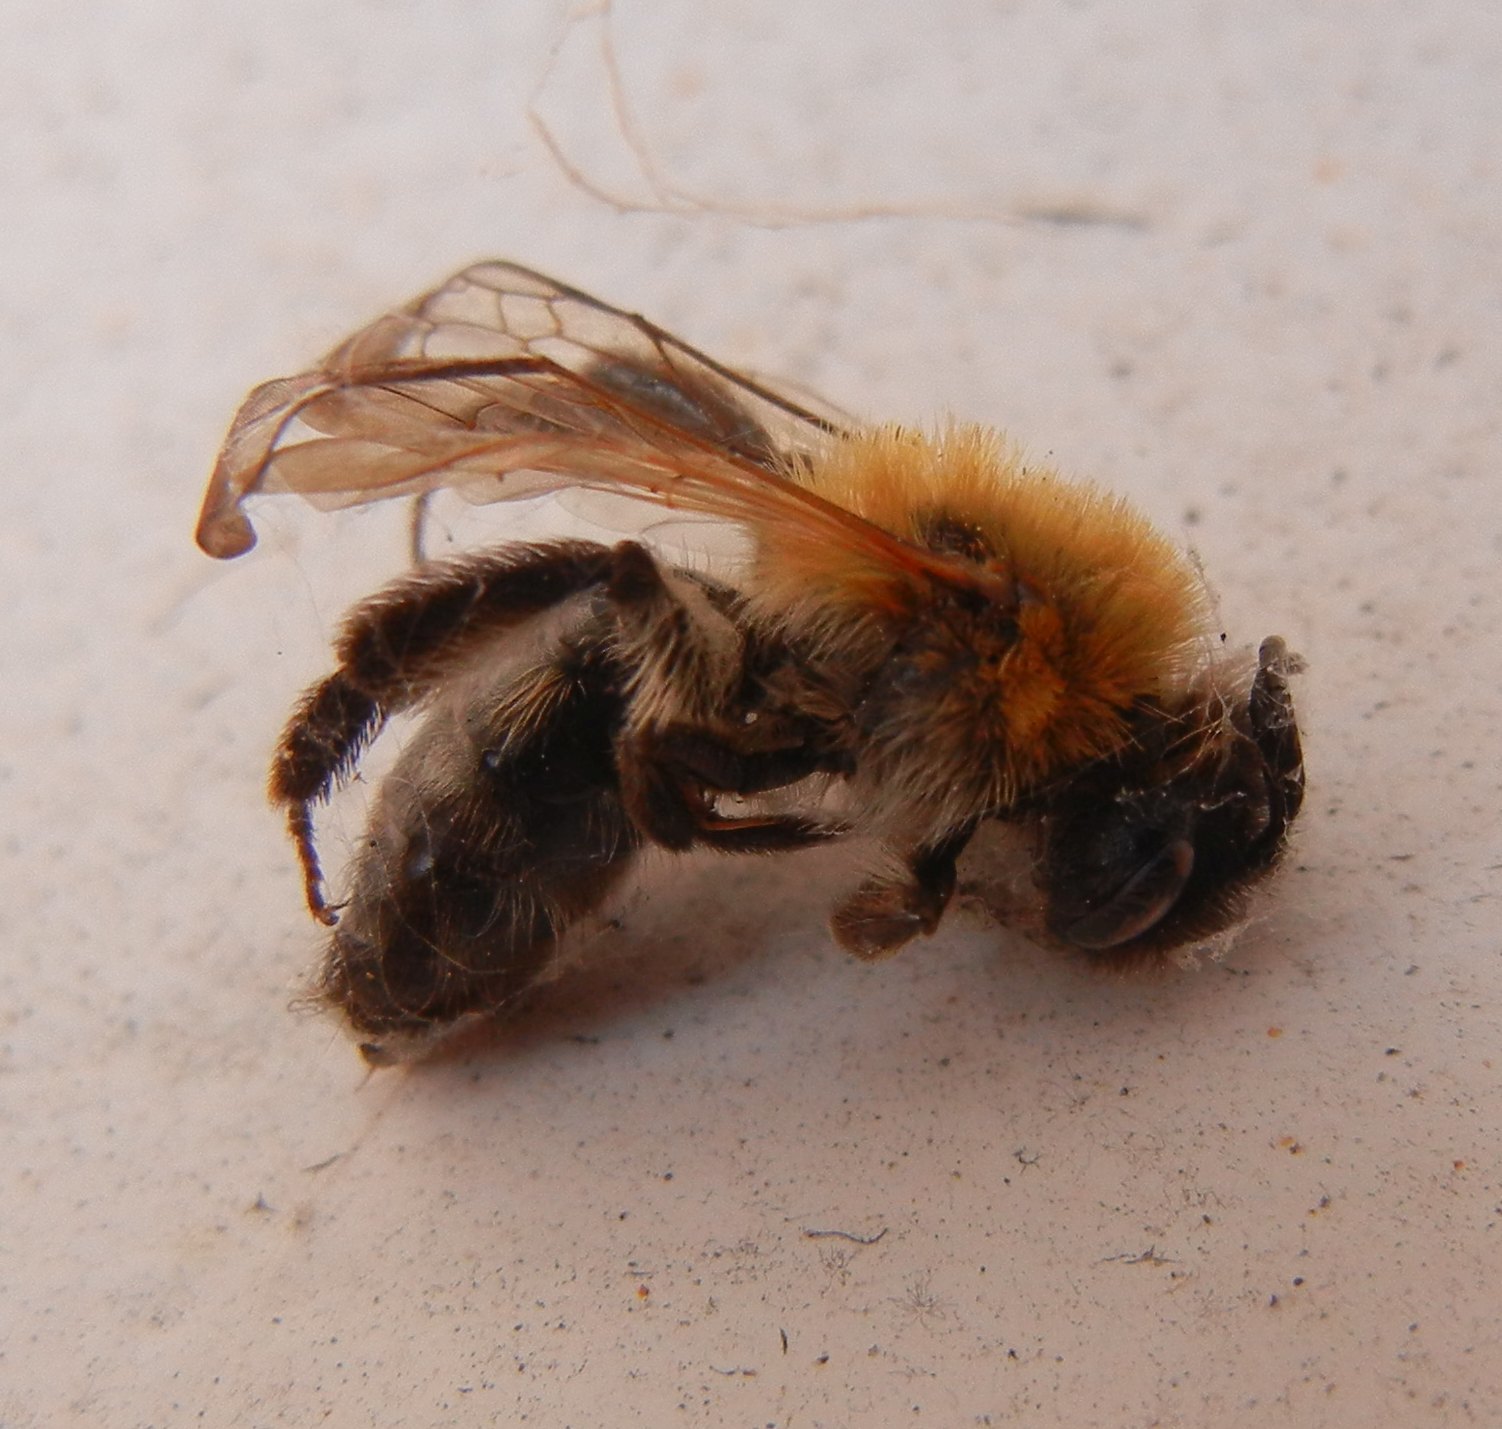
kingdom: Animalia
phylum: Arthropoda
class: Insecta
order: Hymenoptera
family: Andrenidae
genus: Andrena
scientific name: Andrena nitida
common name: Grey-patched mining bee
